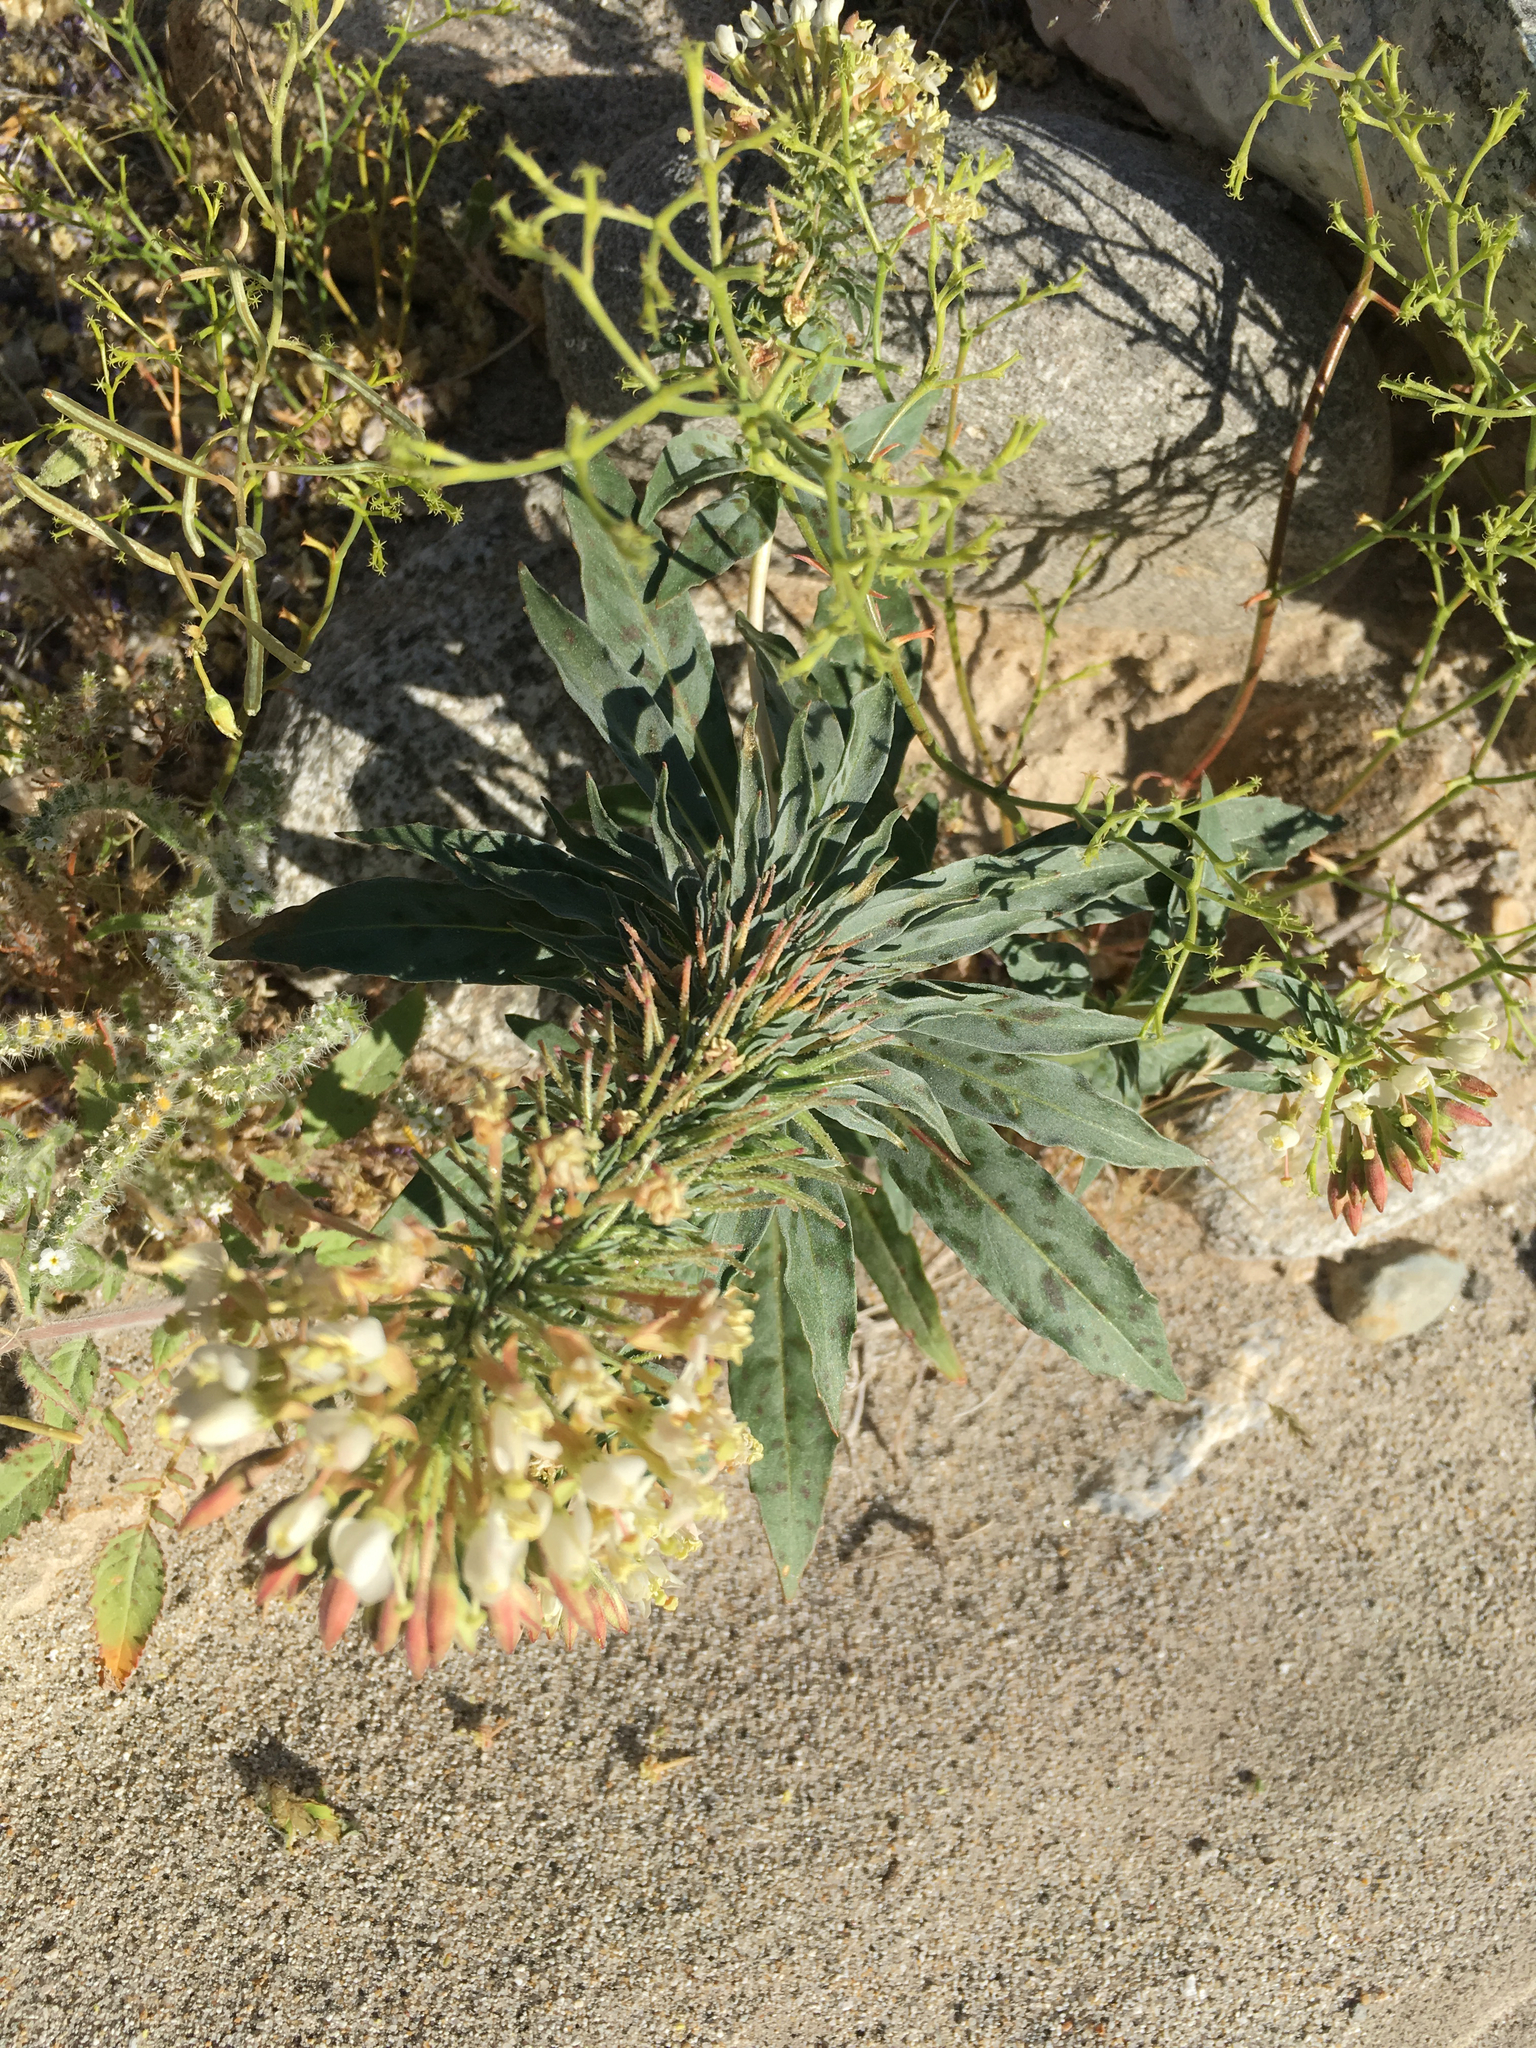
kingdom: Plantae
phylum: Tracheophyta
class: Magnoliopsida
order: Myrtales
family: Onagraceae
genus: Eremothera
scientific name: Eremothera boothii
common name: Booth's evening primrose
